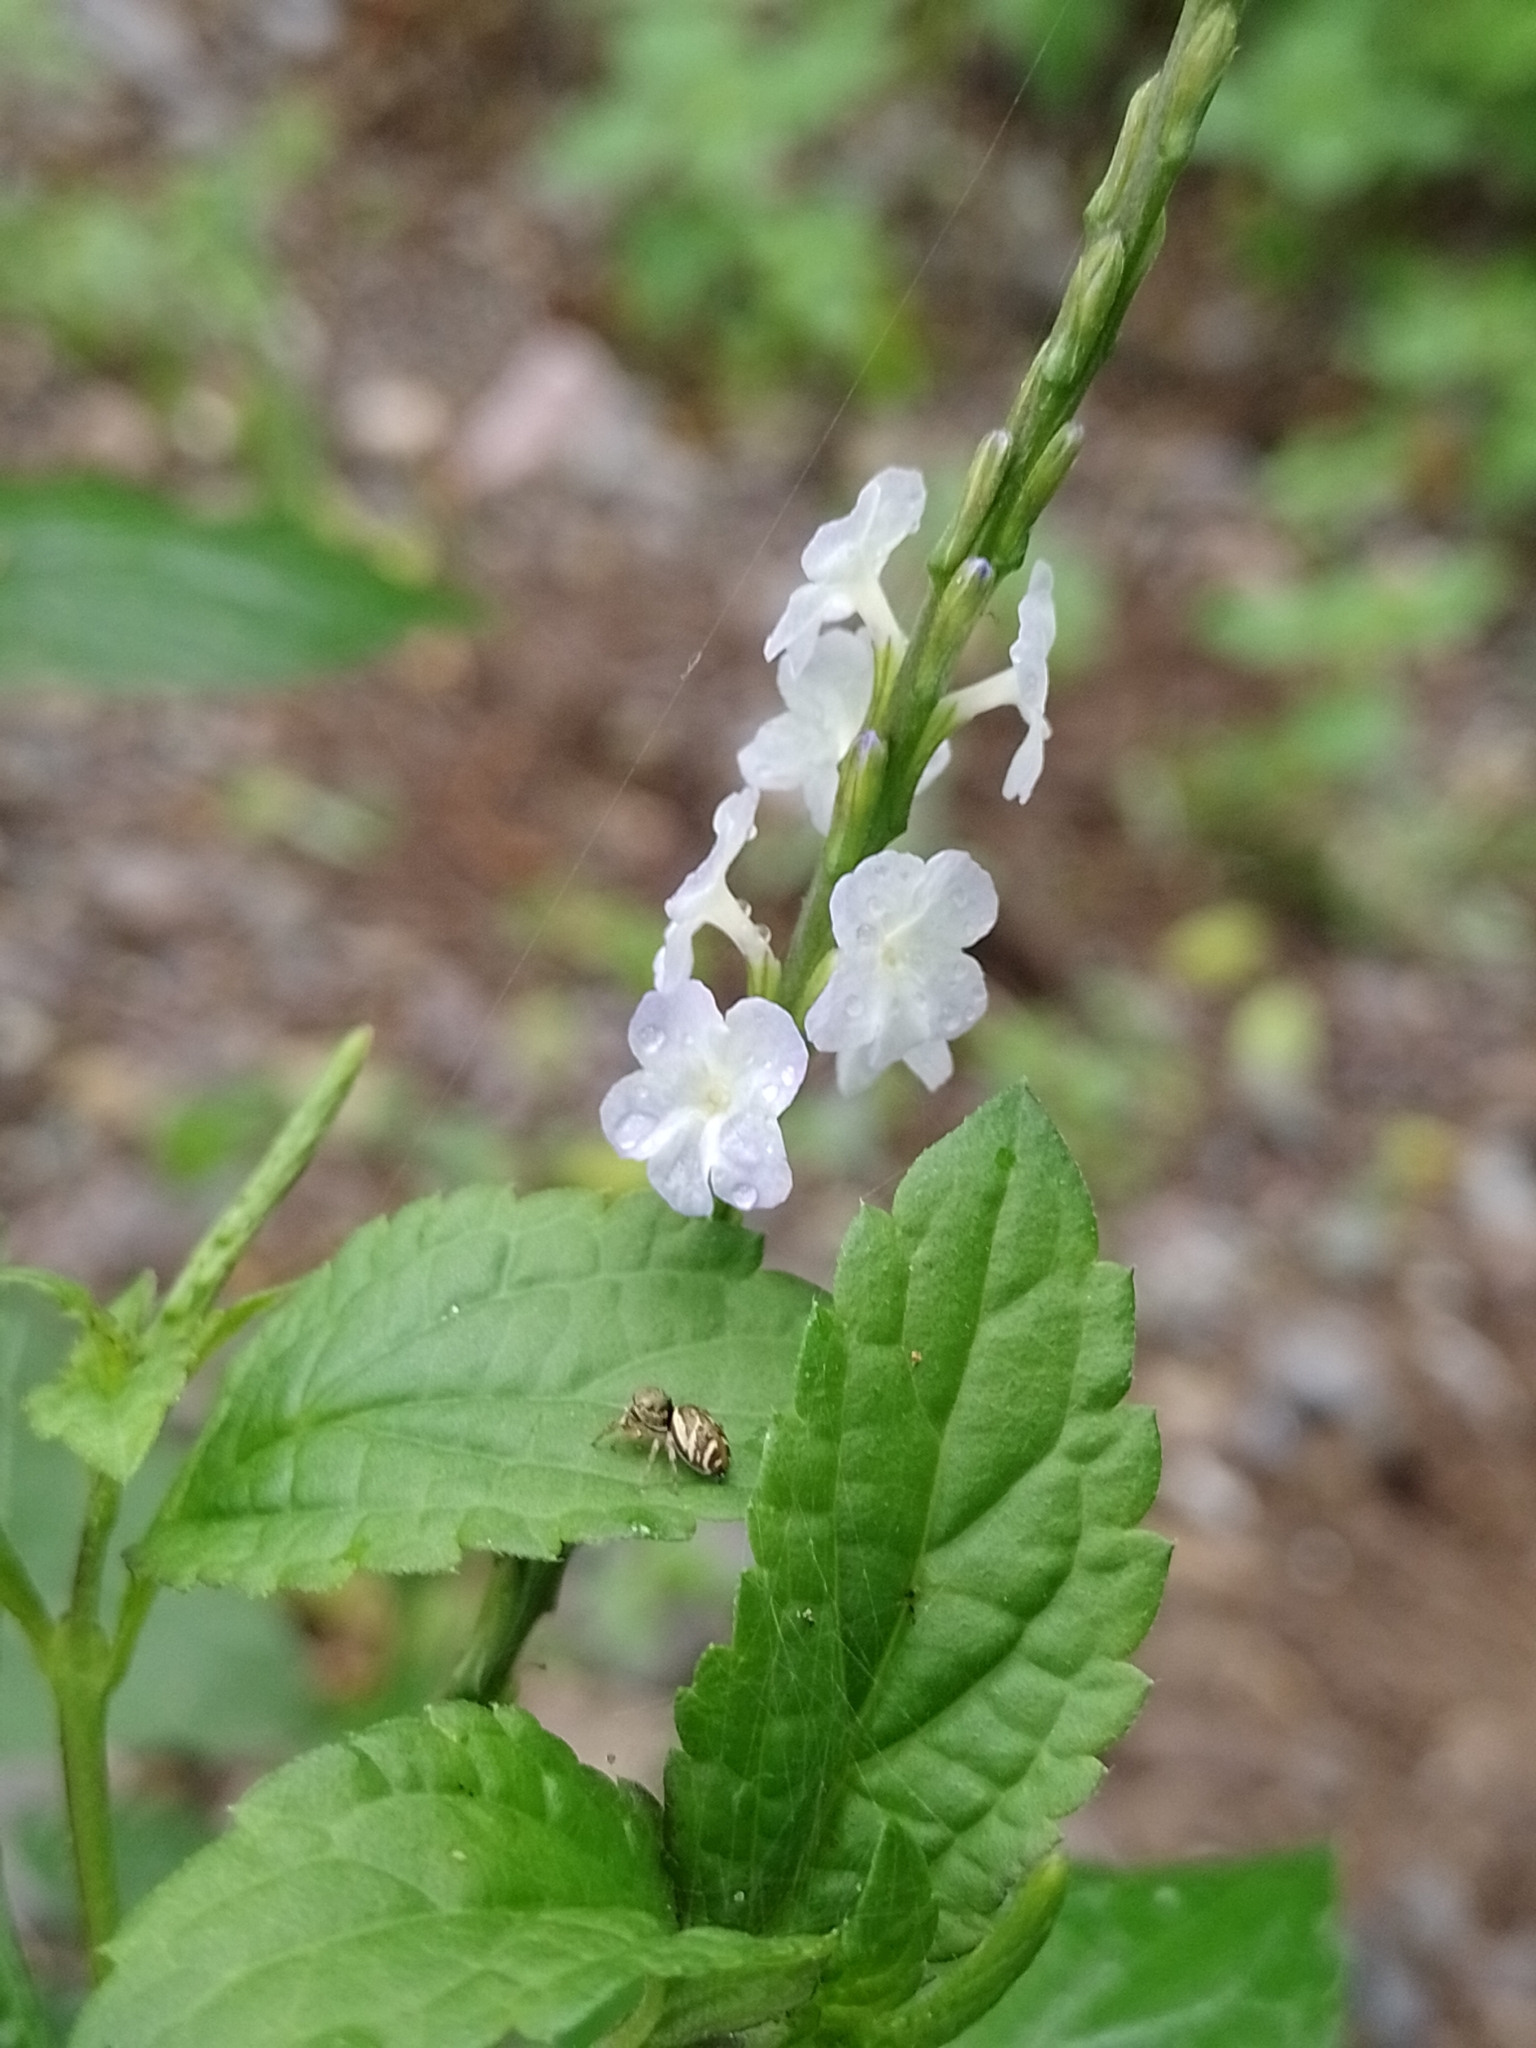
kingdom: Plantae
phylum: Tracheophyta
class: Magnoliopsida
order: Lamiales
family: Verbenaceae
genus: Stachytarpheta
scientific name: Stachytarpheta cayennensis
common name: Cayenne porterweed
